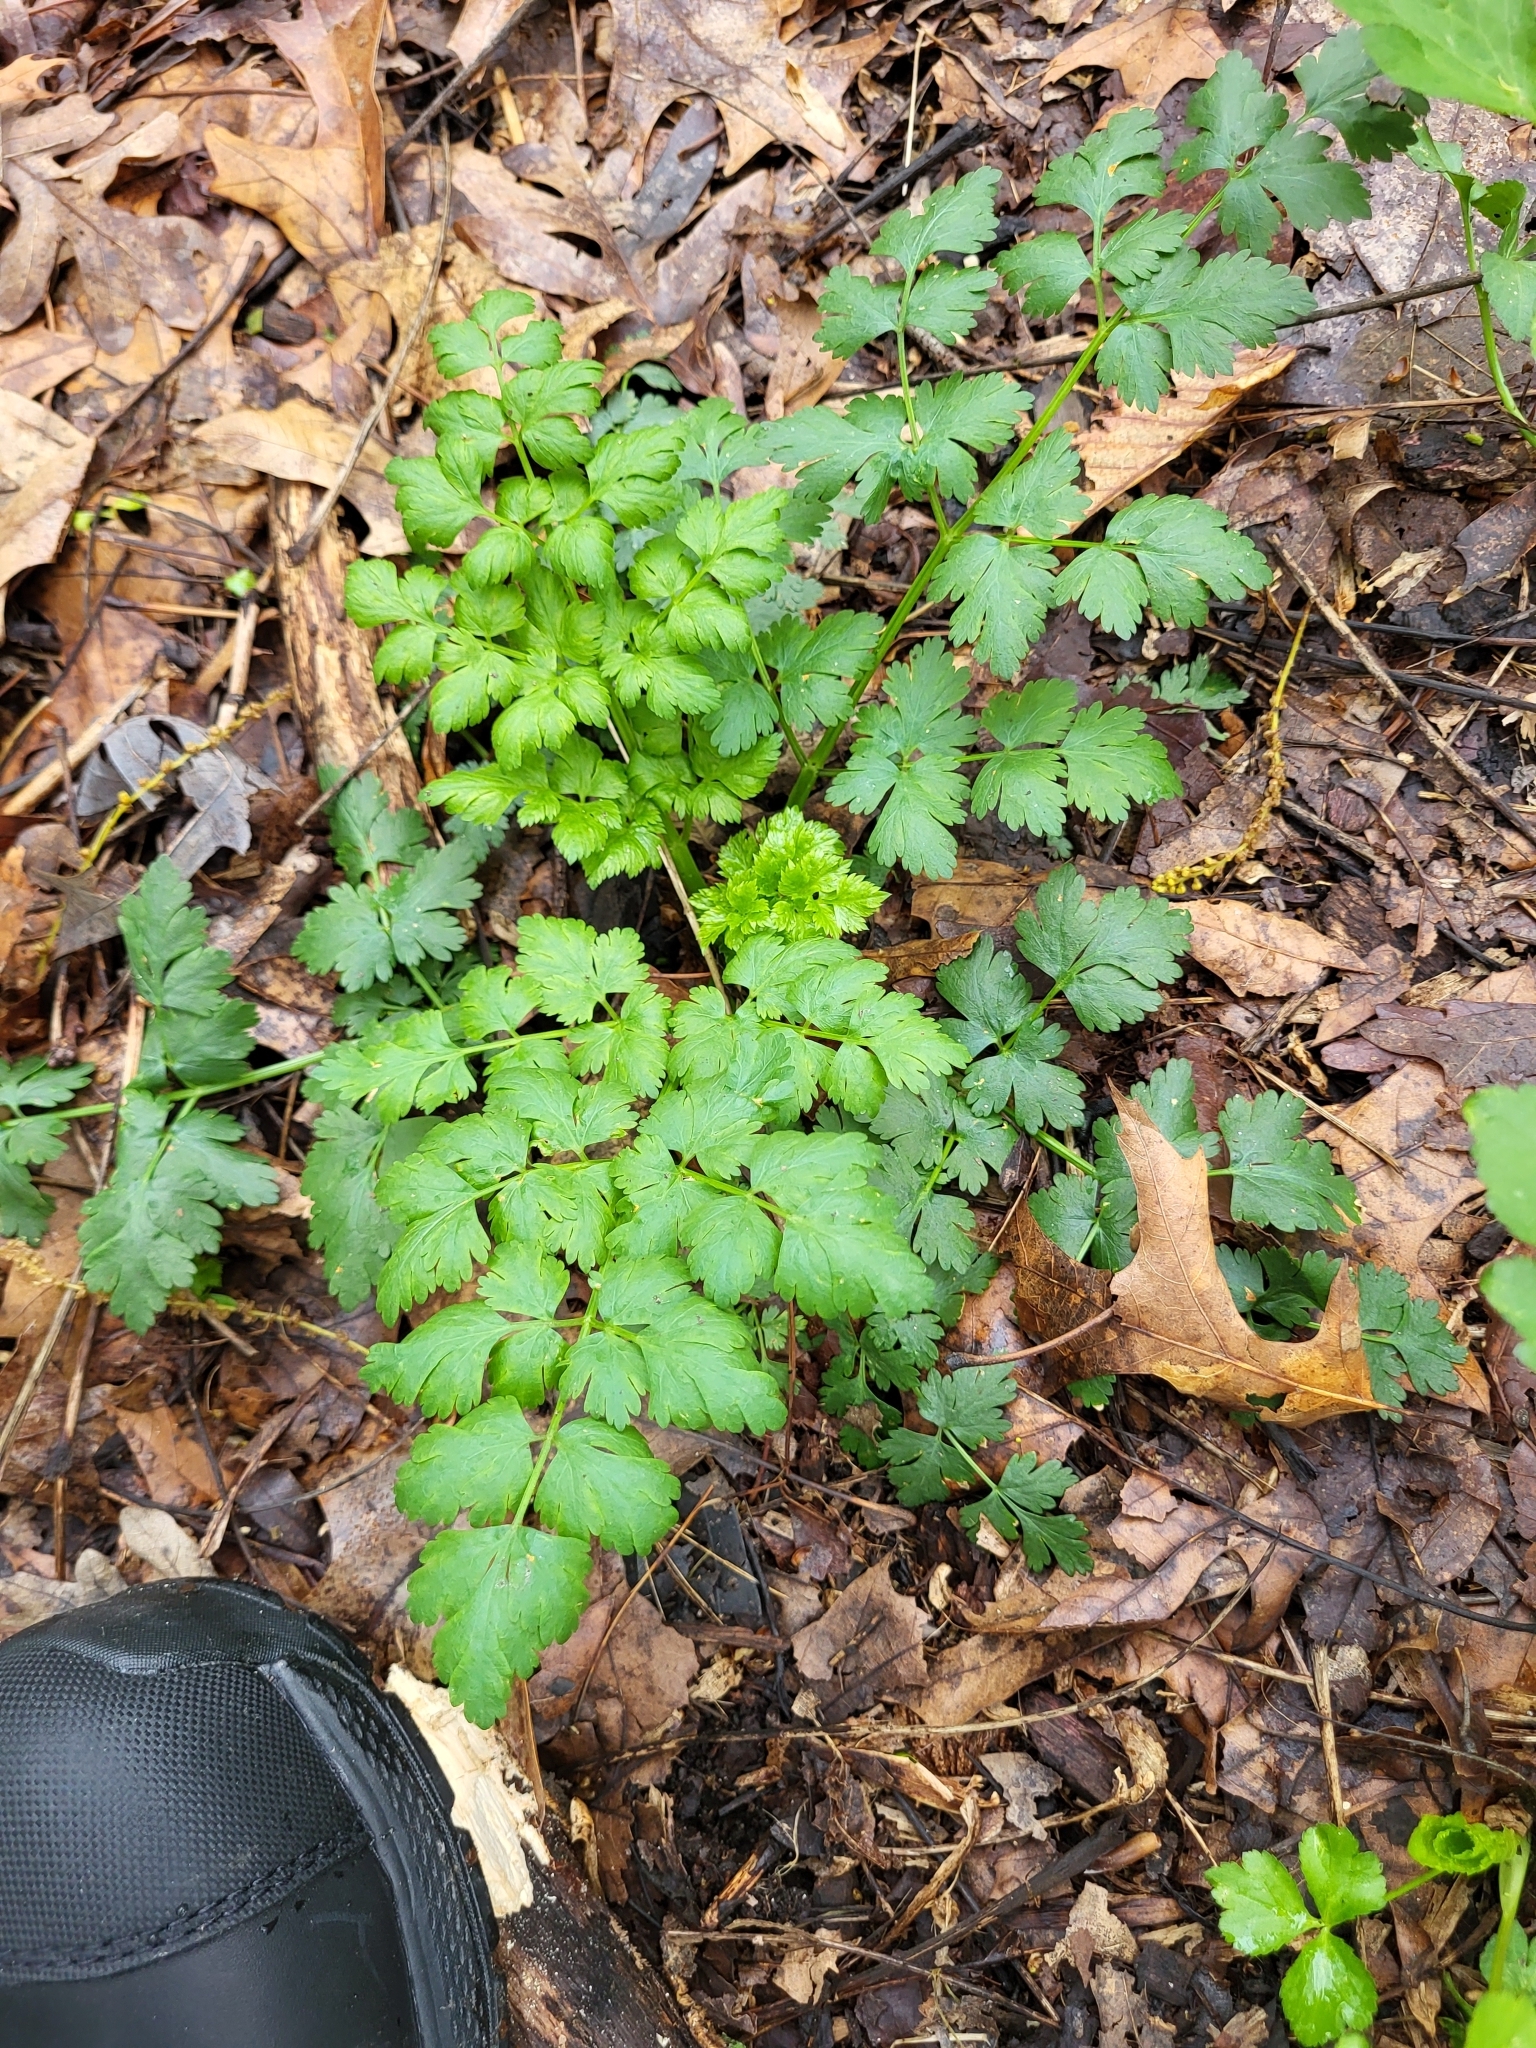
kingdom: Plantae
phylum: Tracheophyta
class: Magnoliopsida
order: Apiales
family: Apiaceae
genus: Aethusa
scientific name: Aethusa cynapium
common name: Fool's parsley
